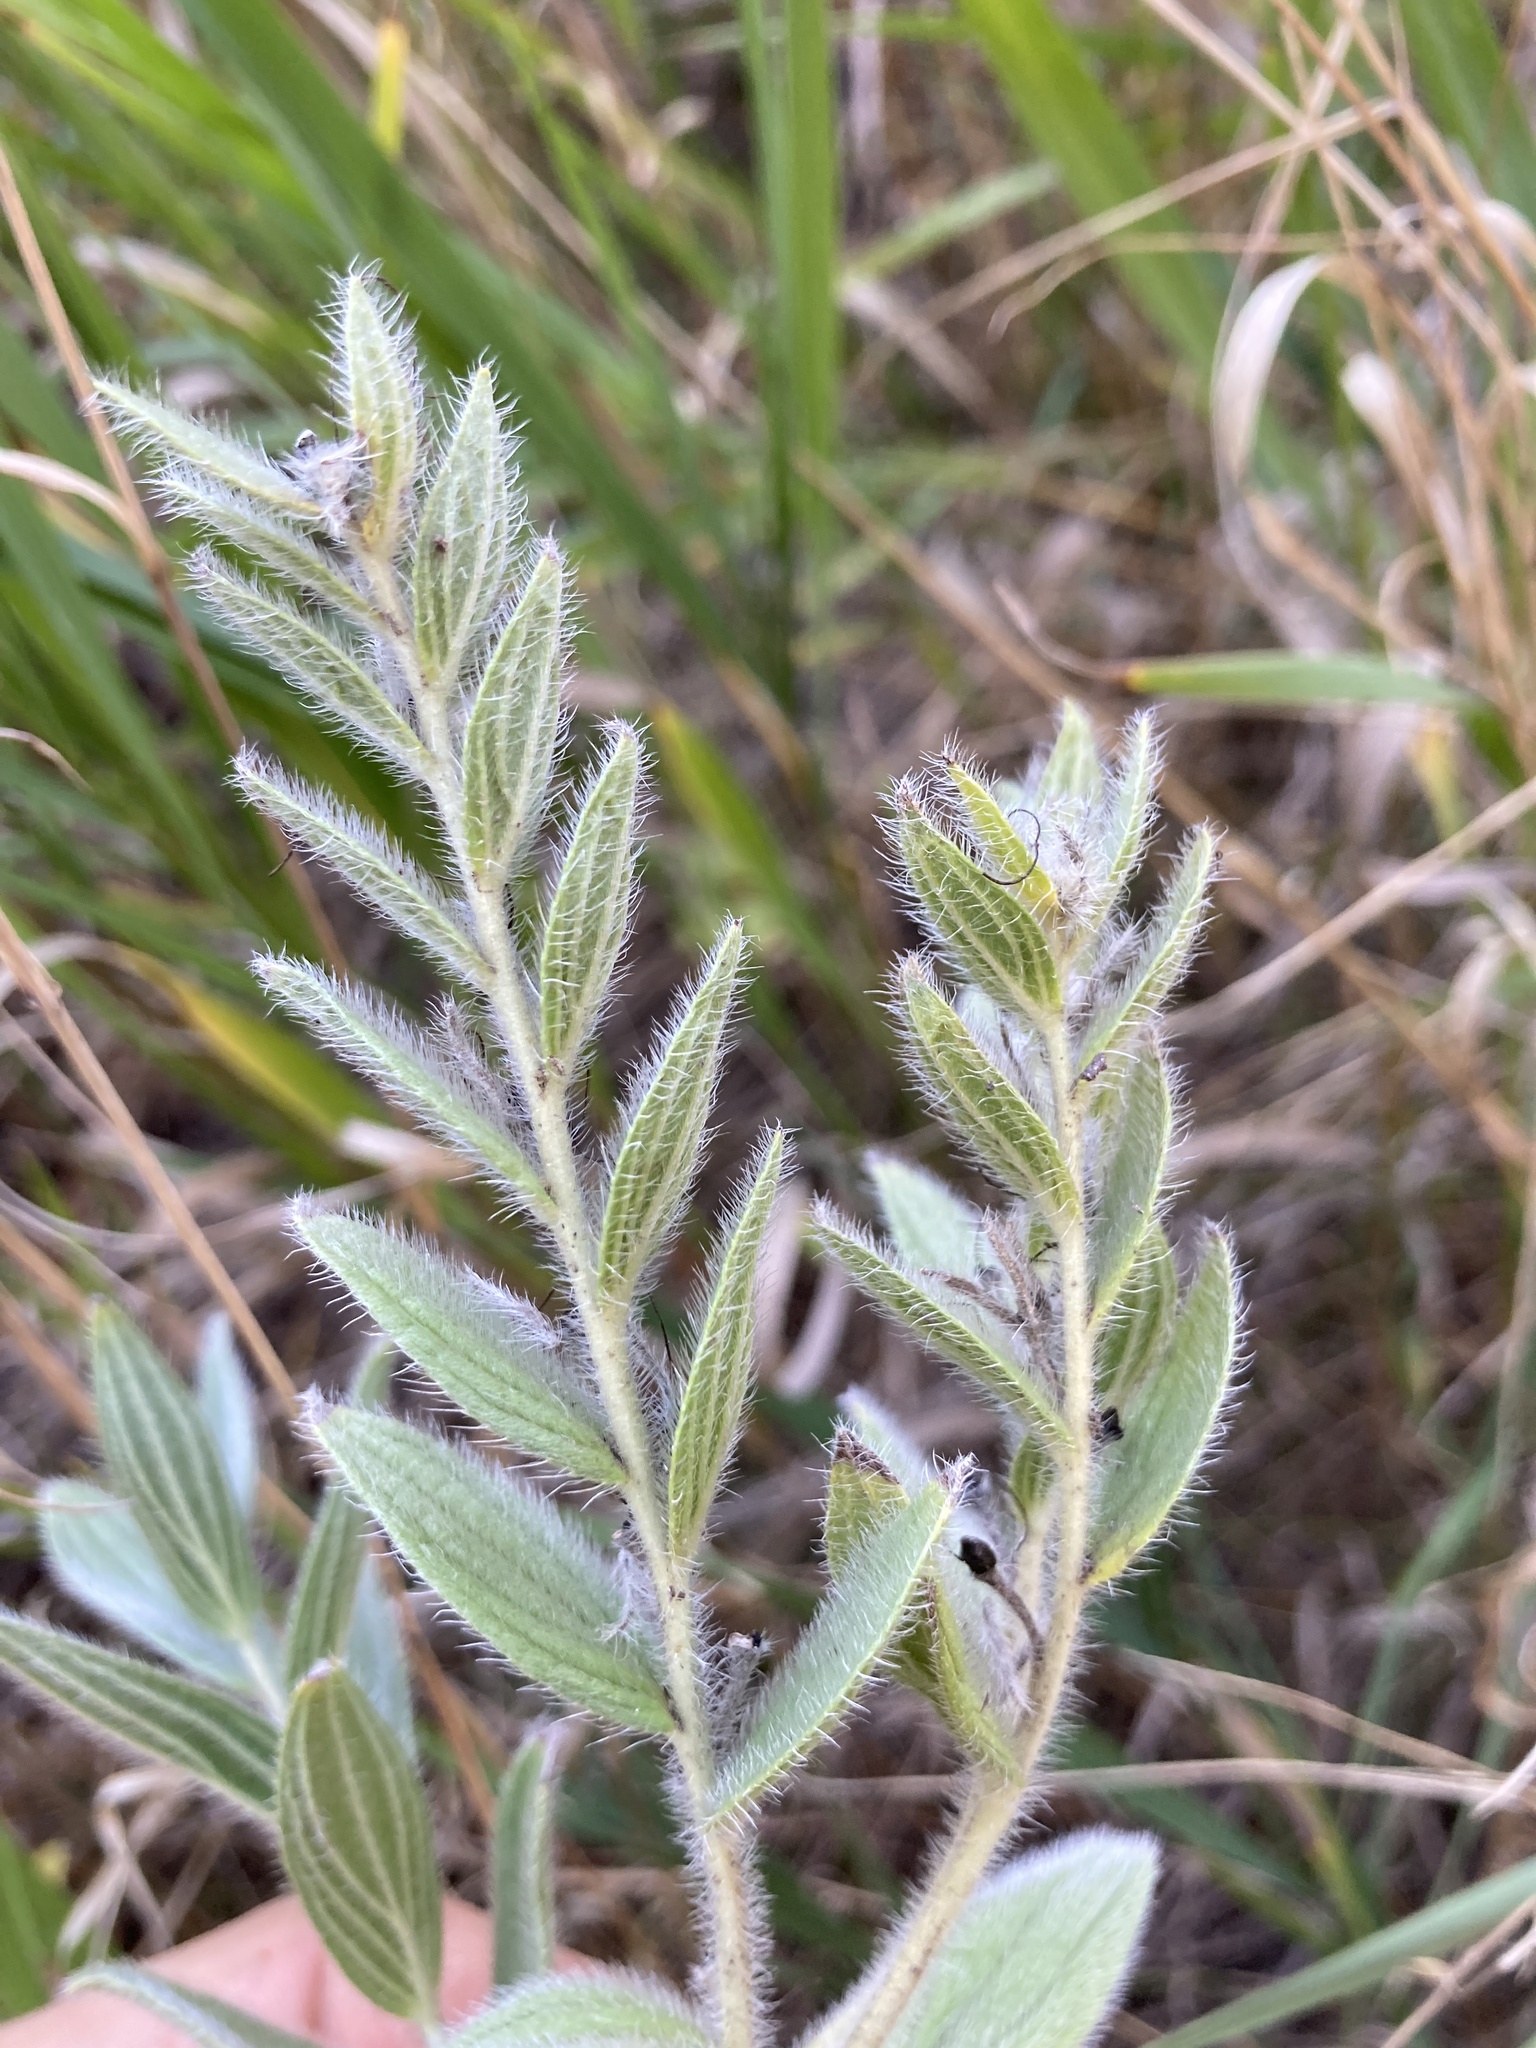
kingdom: Plantae
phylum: Tracheophyta
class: Magnoliopsida
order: Boraginales
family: Boraginaceae
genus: Lithospermum
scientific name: Lithospermum occidentale
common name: Western false gromwell
